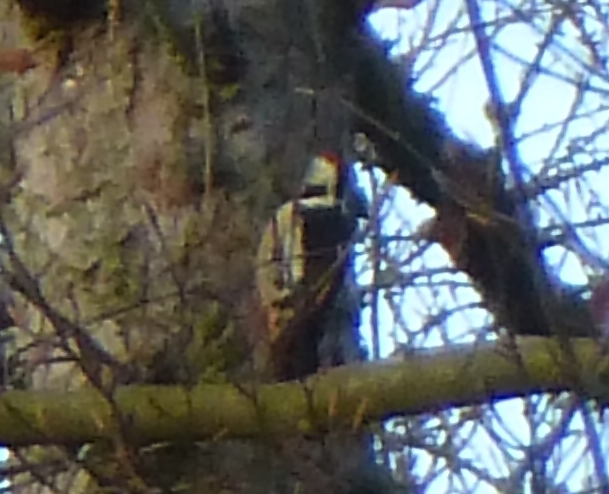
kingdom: Animalia
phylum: Chordata
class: Aves
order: Piciformes
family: Picidae
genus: Dendrocoptes
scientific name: Dendrocoptes medius
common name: Middle spotted woodpecker
